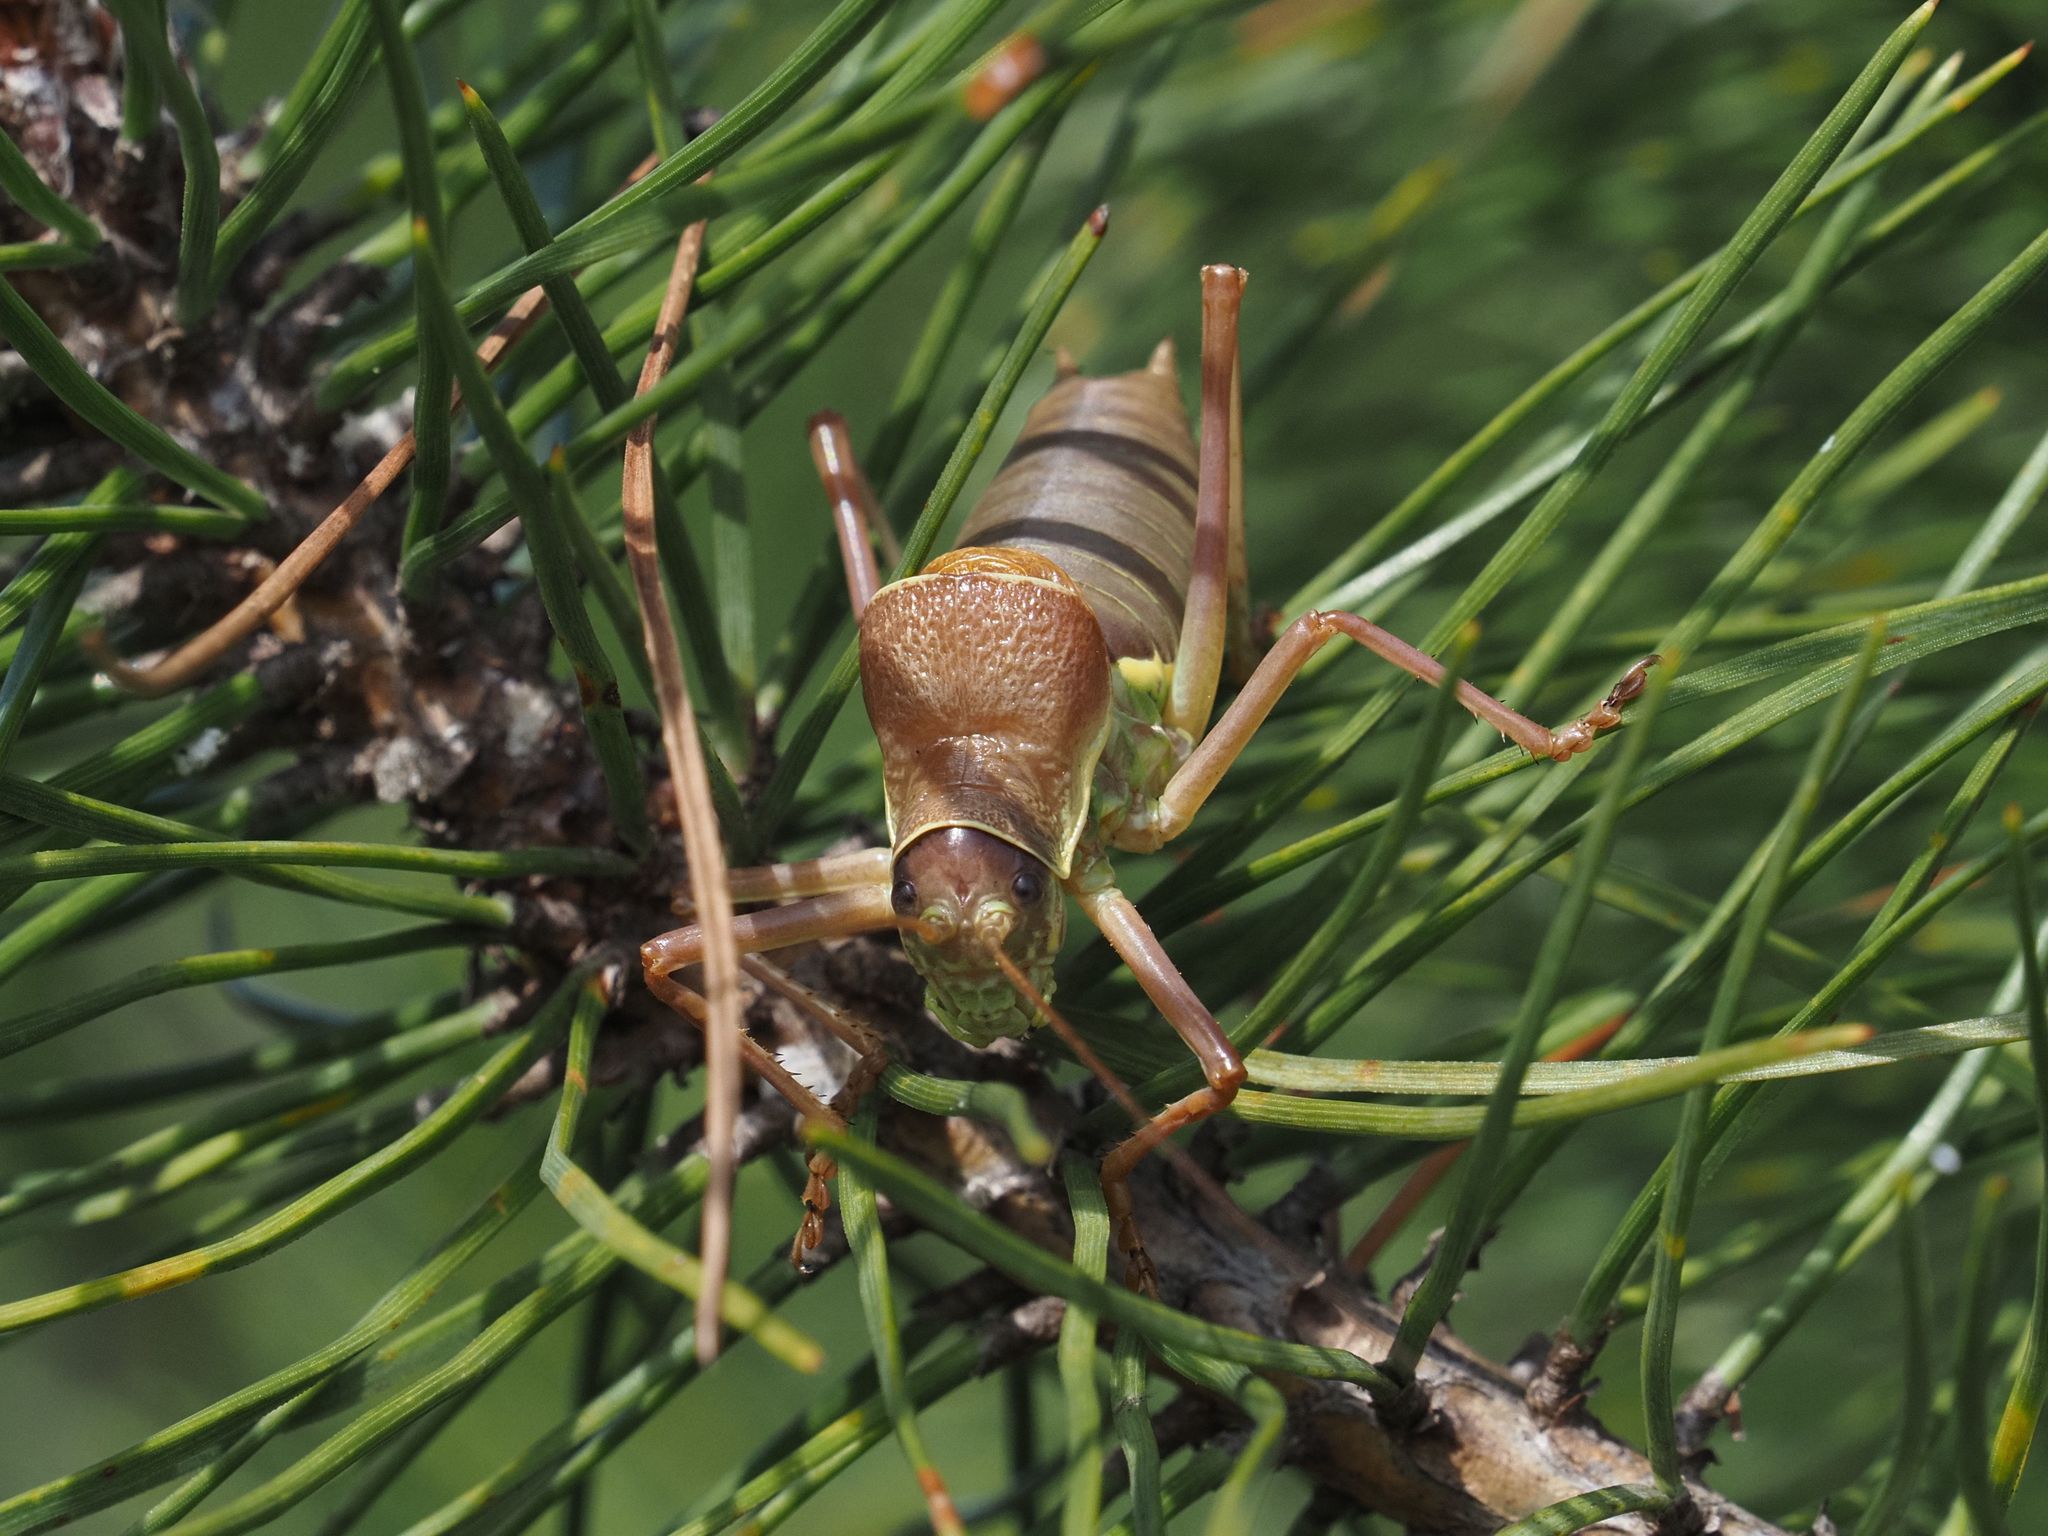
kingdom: Animalia
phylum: Arthropoda
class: Insecta
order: Orthoptera
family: Tettigoniidae
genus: Ephippiger
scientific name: Ephippiger ephippiger
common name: Eastern saddle bush-cricket
